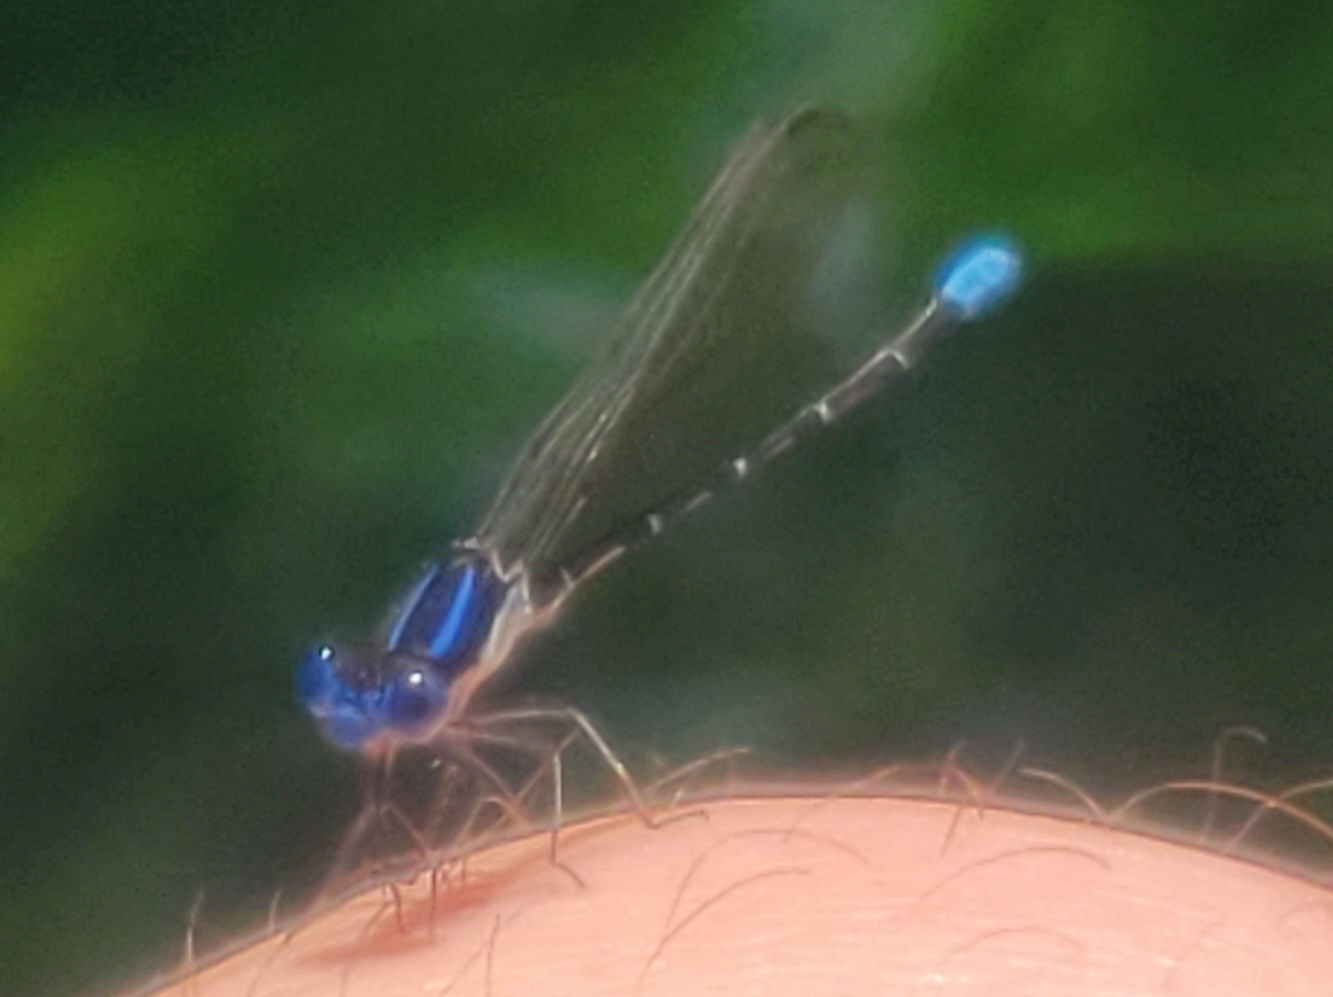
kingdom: Animalia
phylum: Arthropoda
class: Insecta
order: Odonata
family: Coenagrionidae
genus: Argia
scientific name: Argia sedula
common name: Blue-ringed dancer
